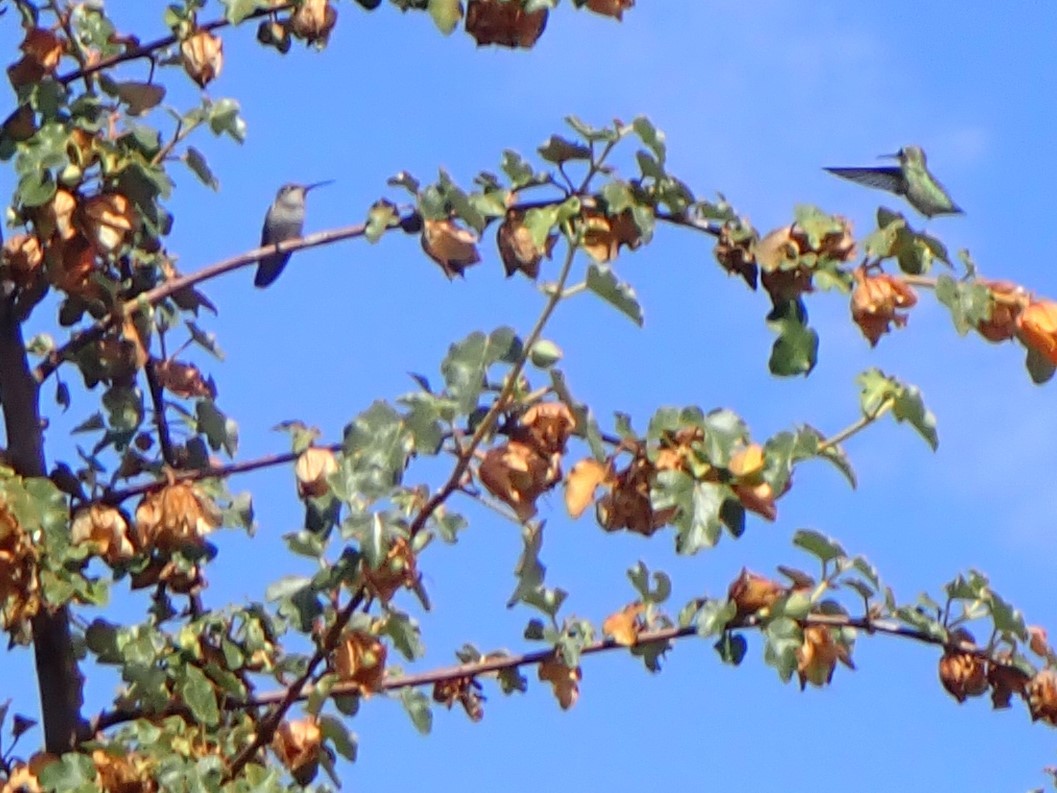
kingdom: Animalia
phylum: Chordata
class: Aves
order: Apodiformes
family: Trochilidae
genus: Calypte
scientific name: Calypte anna
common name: Anna's hummingbird
